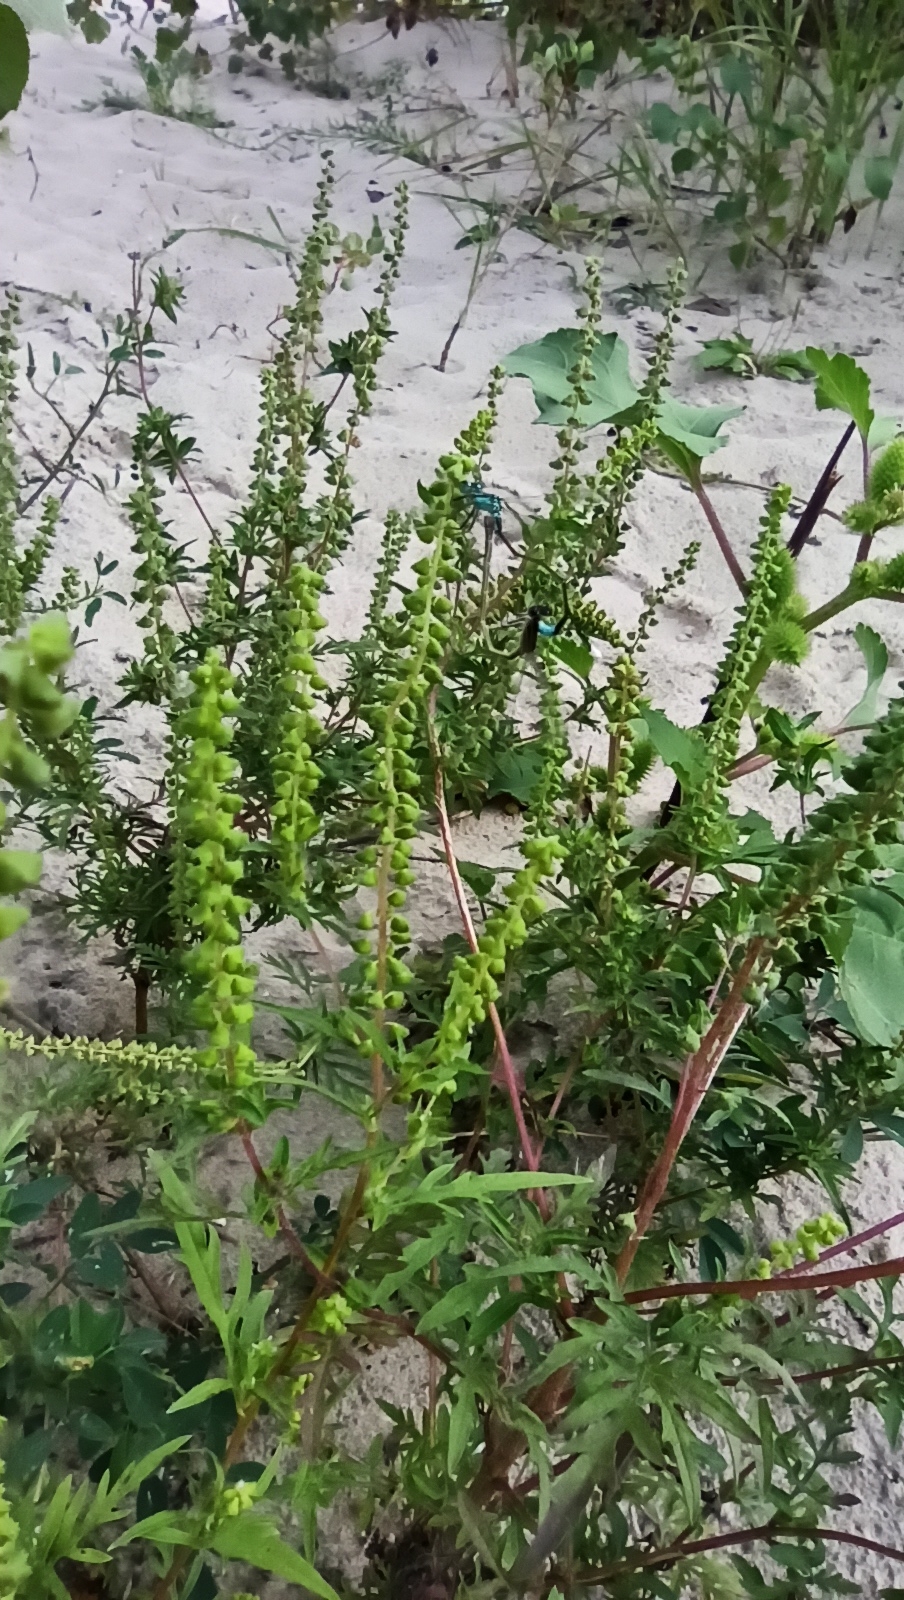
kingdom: Animalia
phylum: Arthropoda
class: Insecta
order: Odonata
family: Coenagrionidae
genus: Ischnura
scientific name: Ischnura elegans
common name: Blue-tailed damselfly
